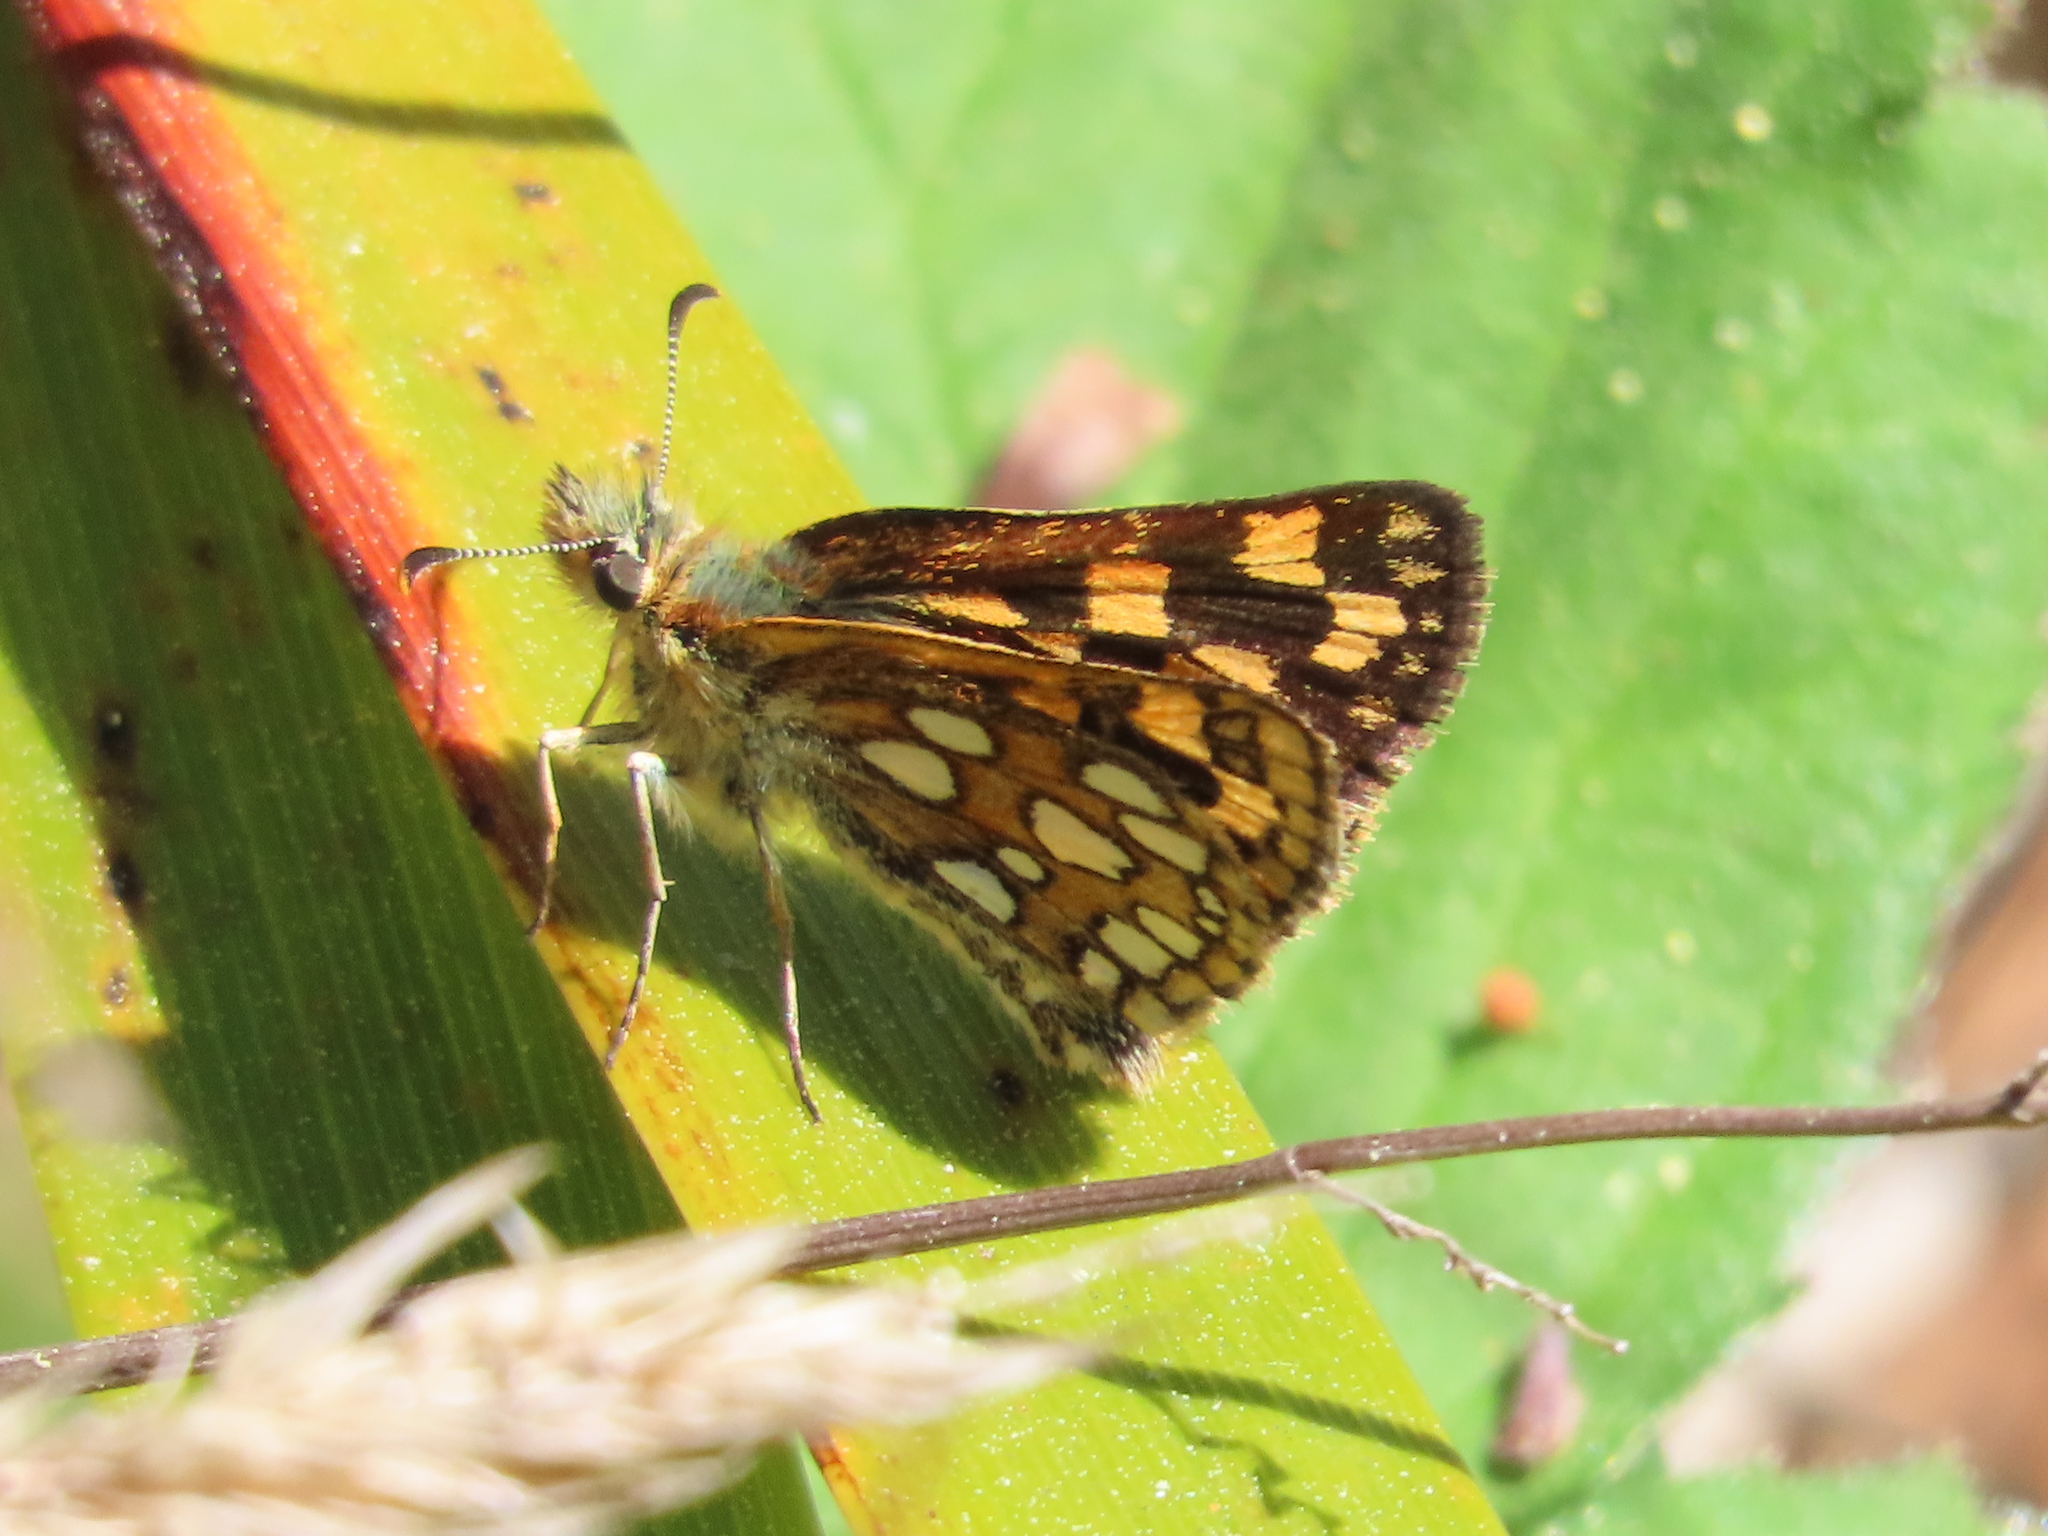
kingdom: Animalia
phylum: Arthropoda
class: Insecta
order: Lepidoptera
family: Hesperiidae
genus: Carterocephalus
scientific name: Carterocephalus skada
